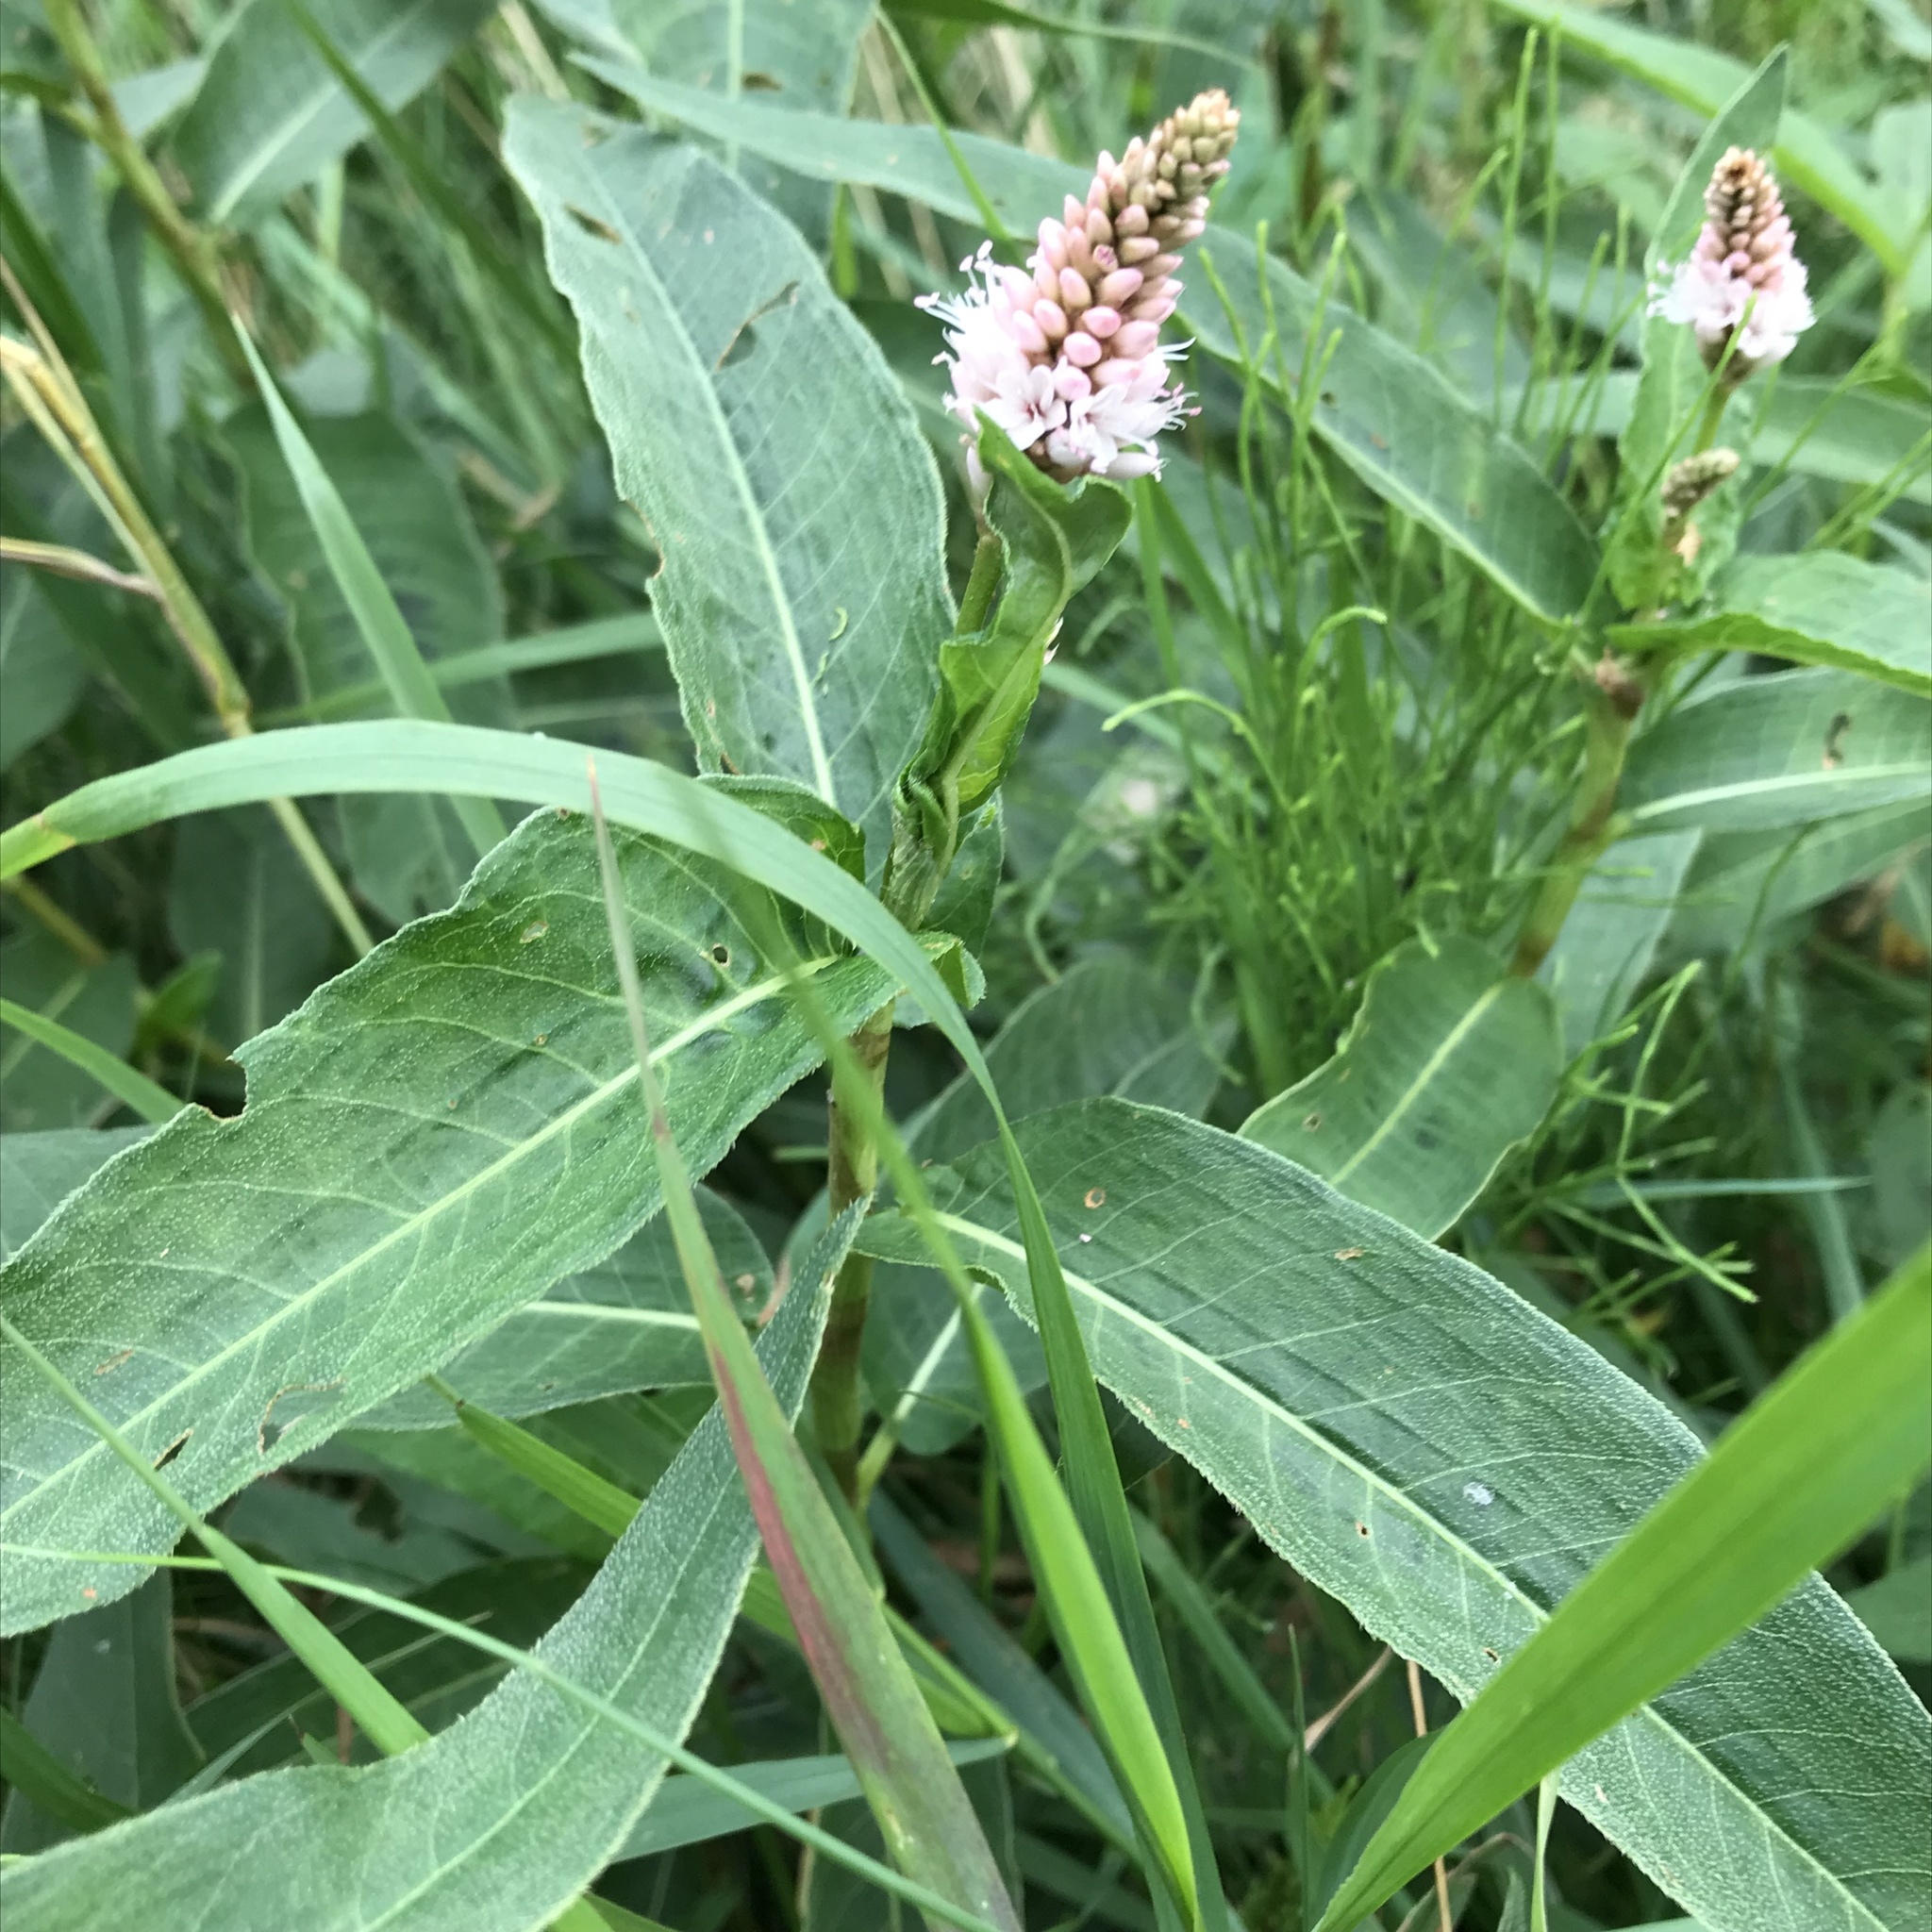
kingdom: Plantae
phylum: Tracheophyta
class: Magnoliopsida
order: Caryophyllales
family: Polygonaceae
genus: Persicaria
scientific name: Persicaria amphibia
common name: Amphibious bistort
